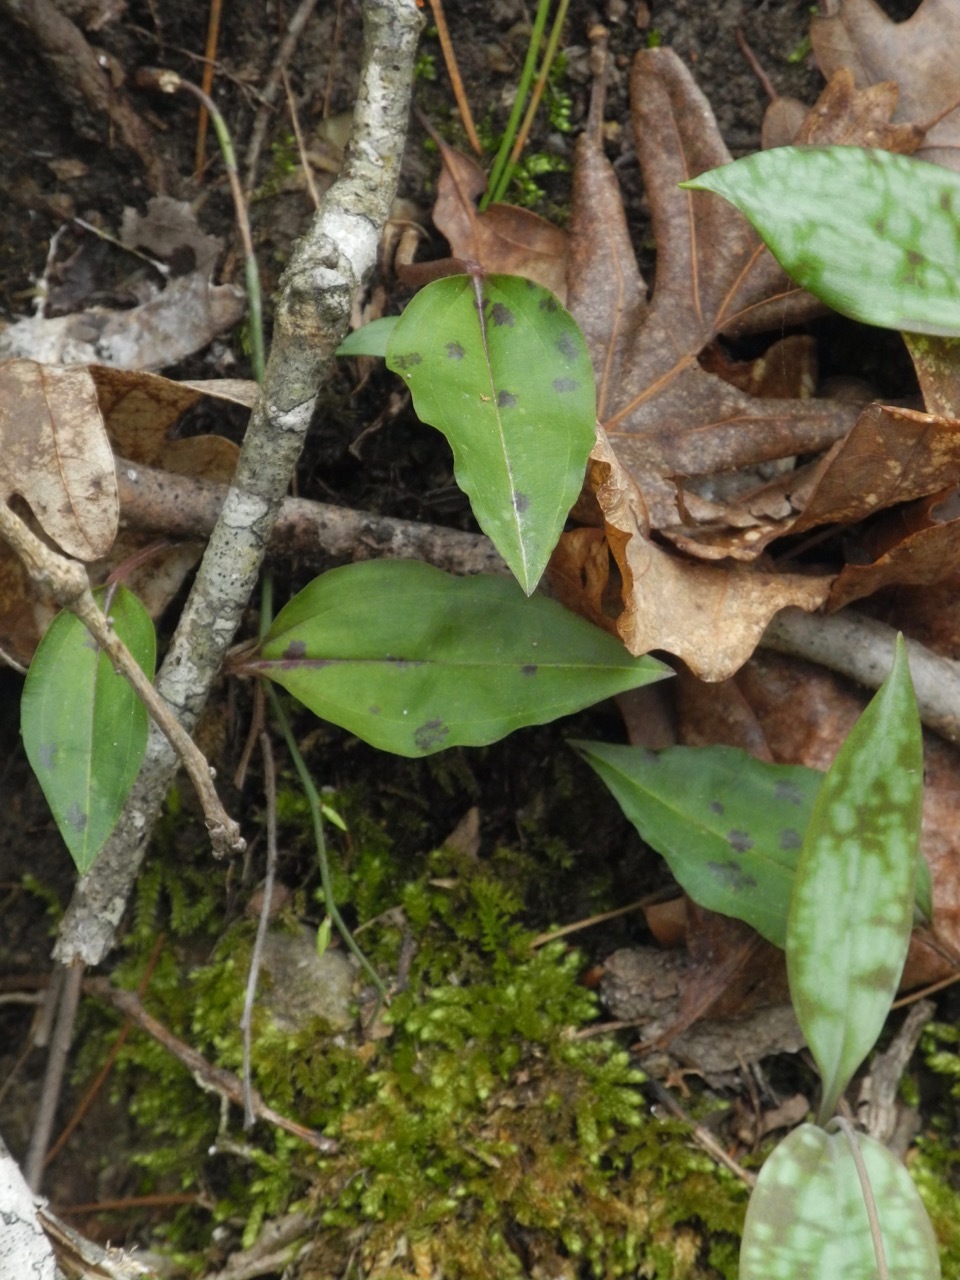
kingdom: Plantae
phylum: Tracheophyta
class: Liliopsida
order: Asparagales
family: Orchidaceae
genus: Tipularia
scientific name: Tipularia discolor
